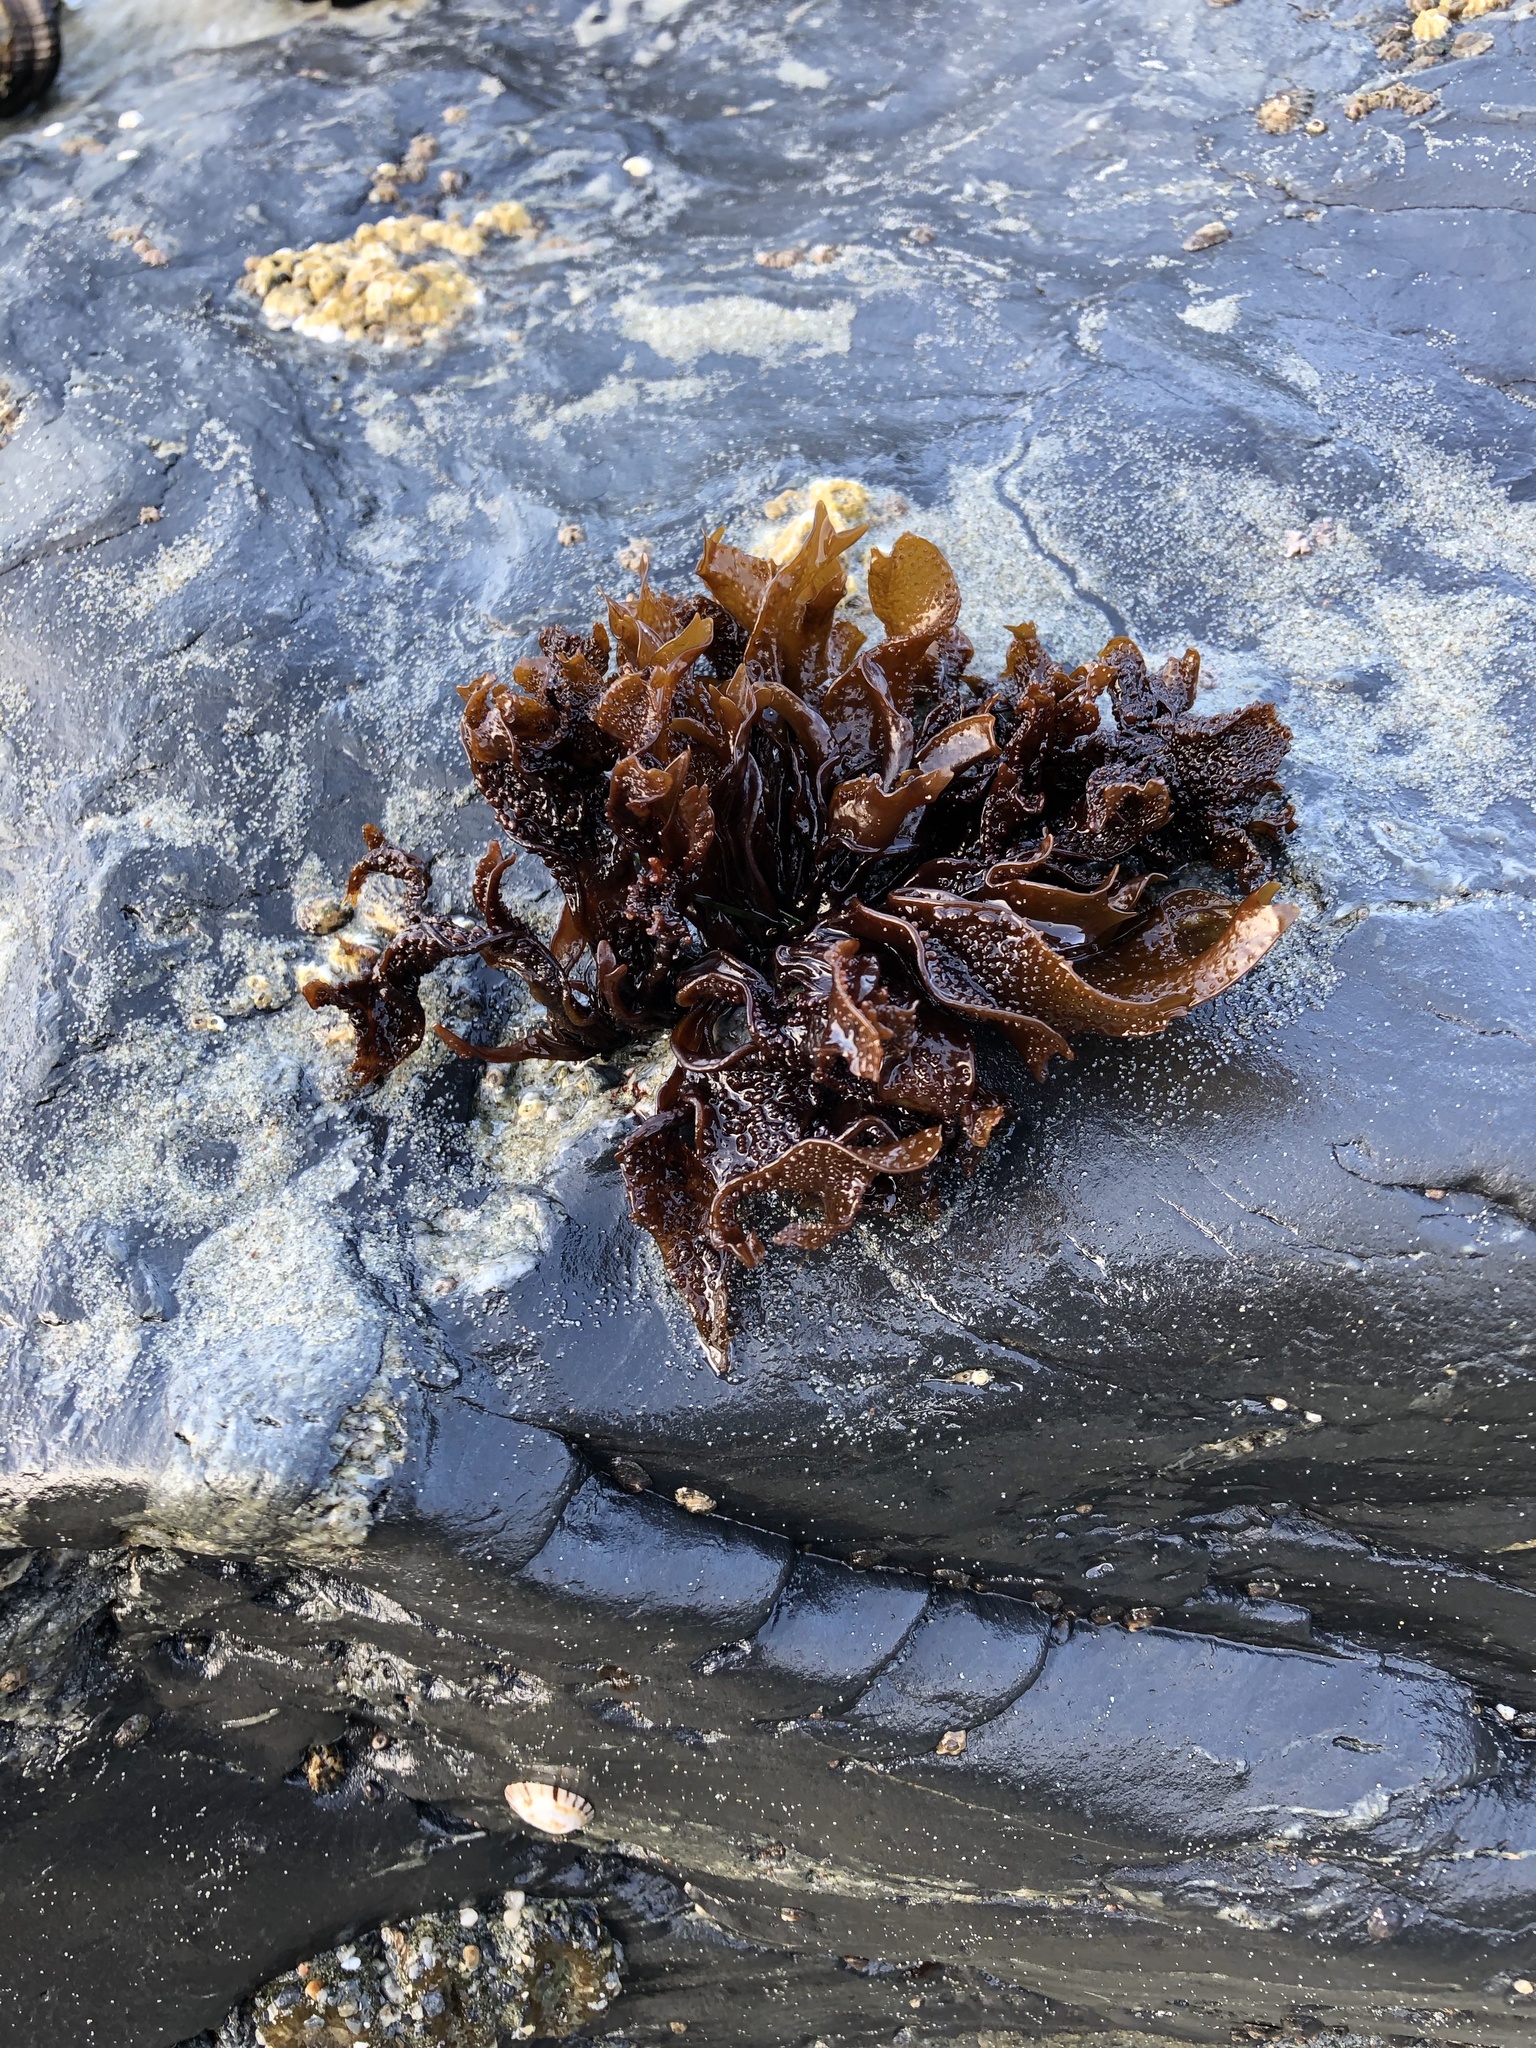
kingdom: Plantae
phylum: Rhodophyta
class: Florideophyceae
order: Gigartinales
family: Phyllophoraceae
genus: Mastocarpus
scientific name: Mastocarpus papillatus
